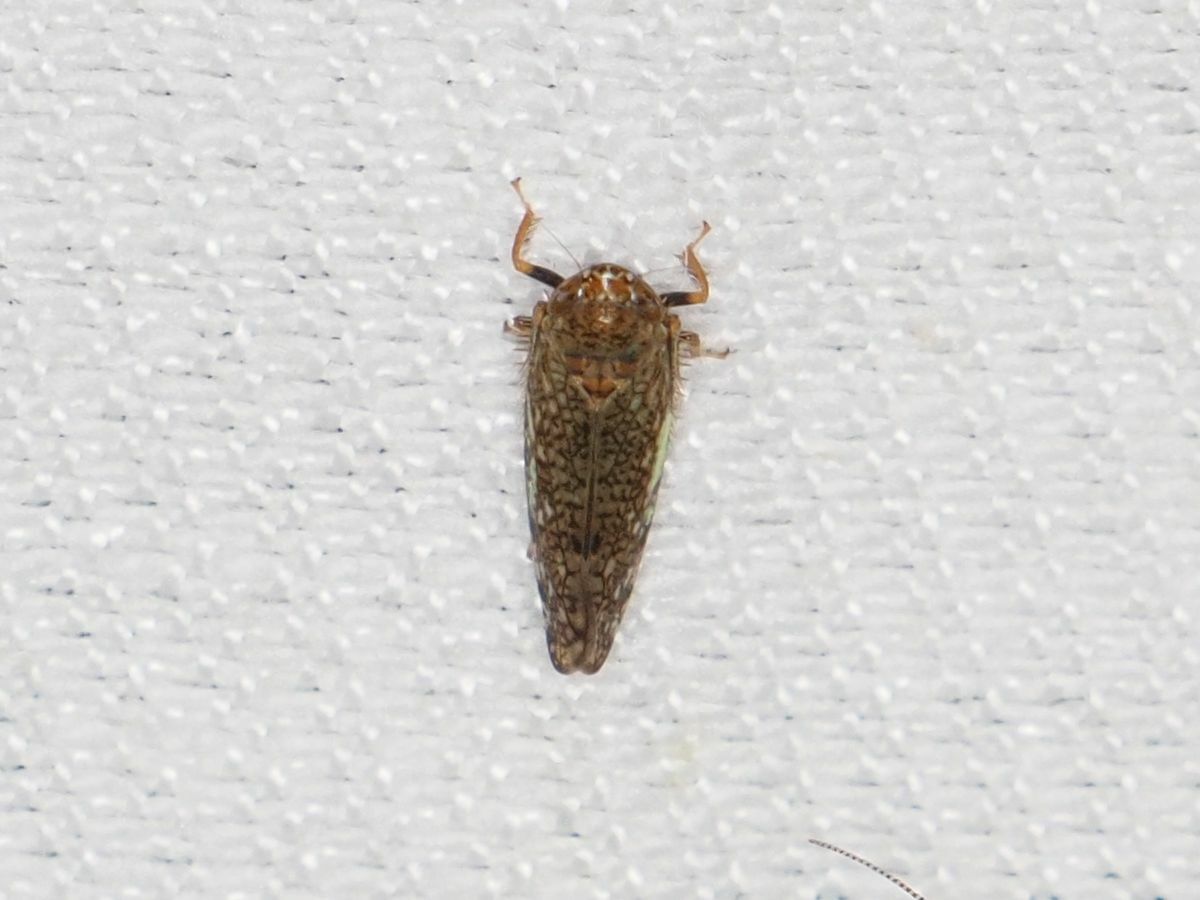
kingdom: Animalia
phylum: Arthropoda
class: Insecta
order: Hemiptera
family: Cicadellidae
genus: Orientus
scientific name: Orientus ishidae
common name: Japanese leafhopper
